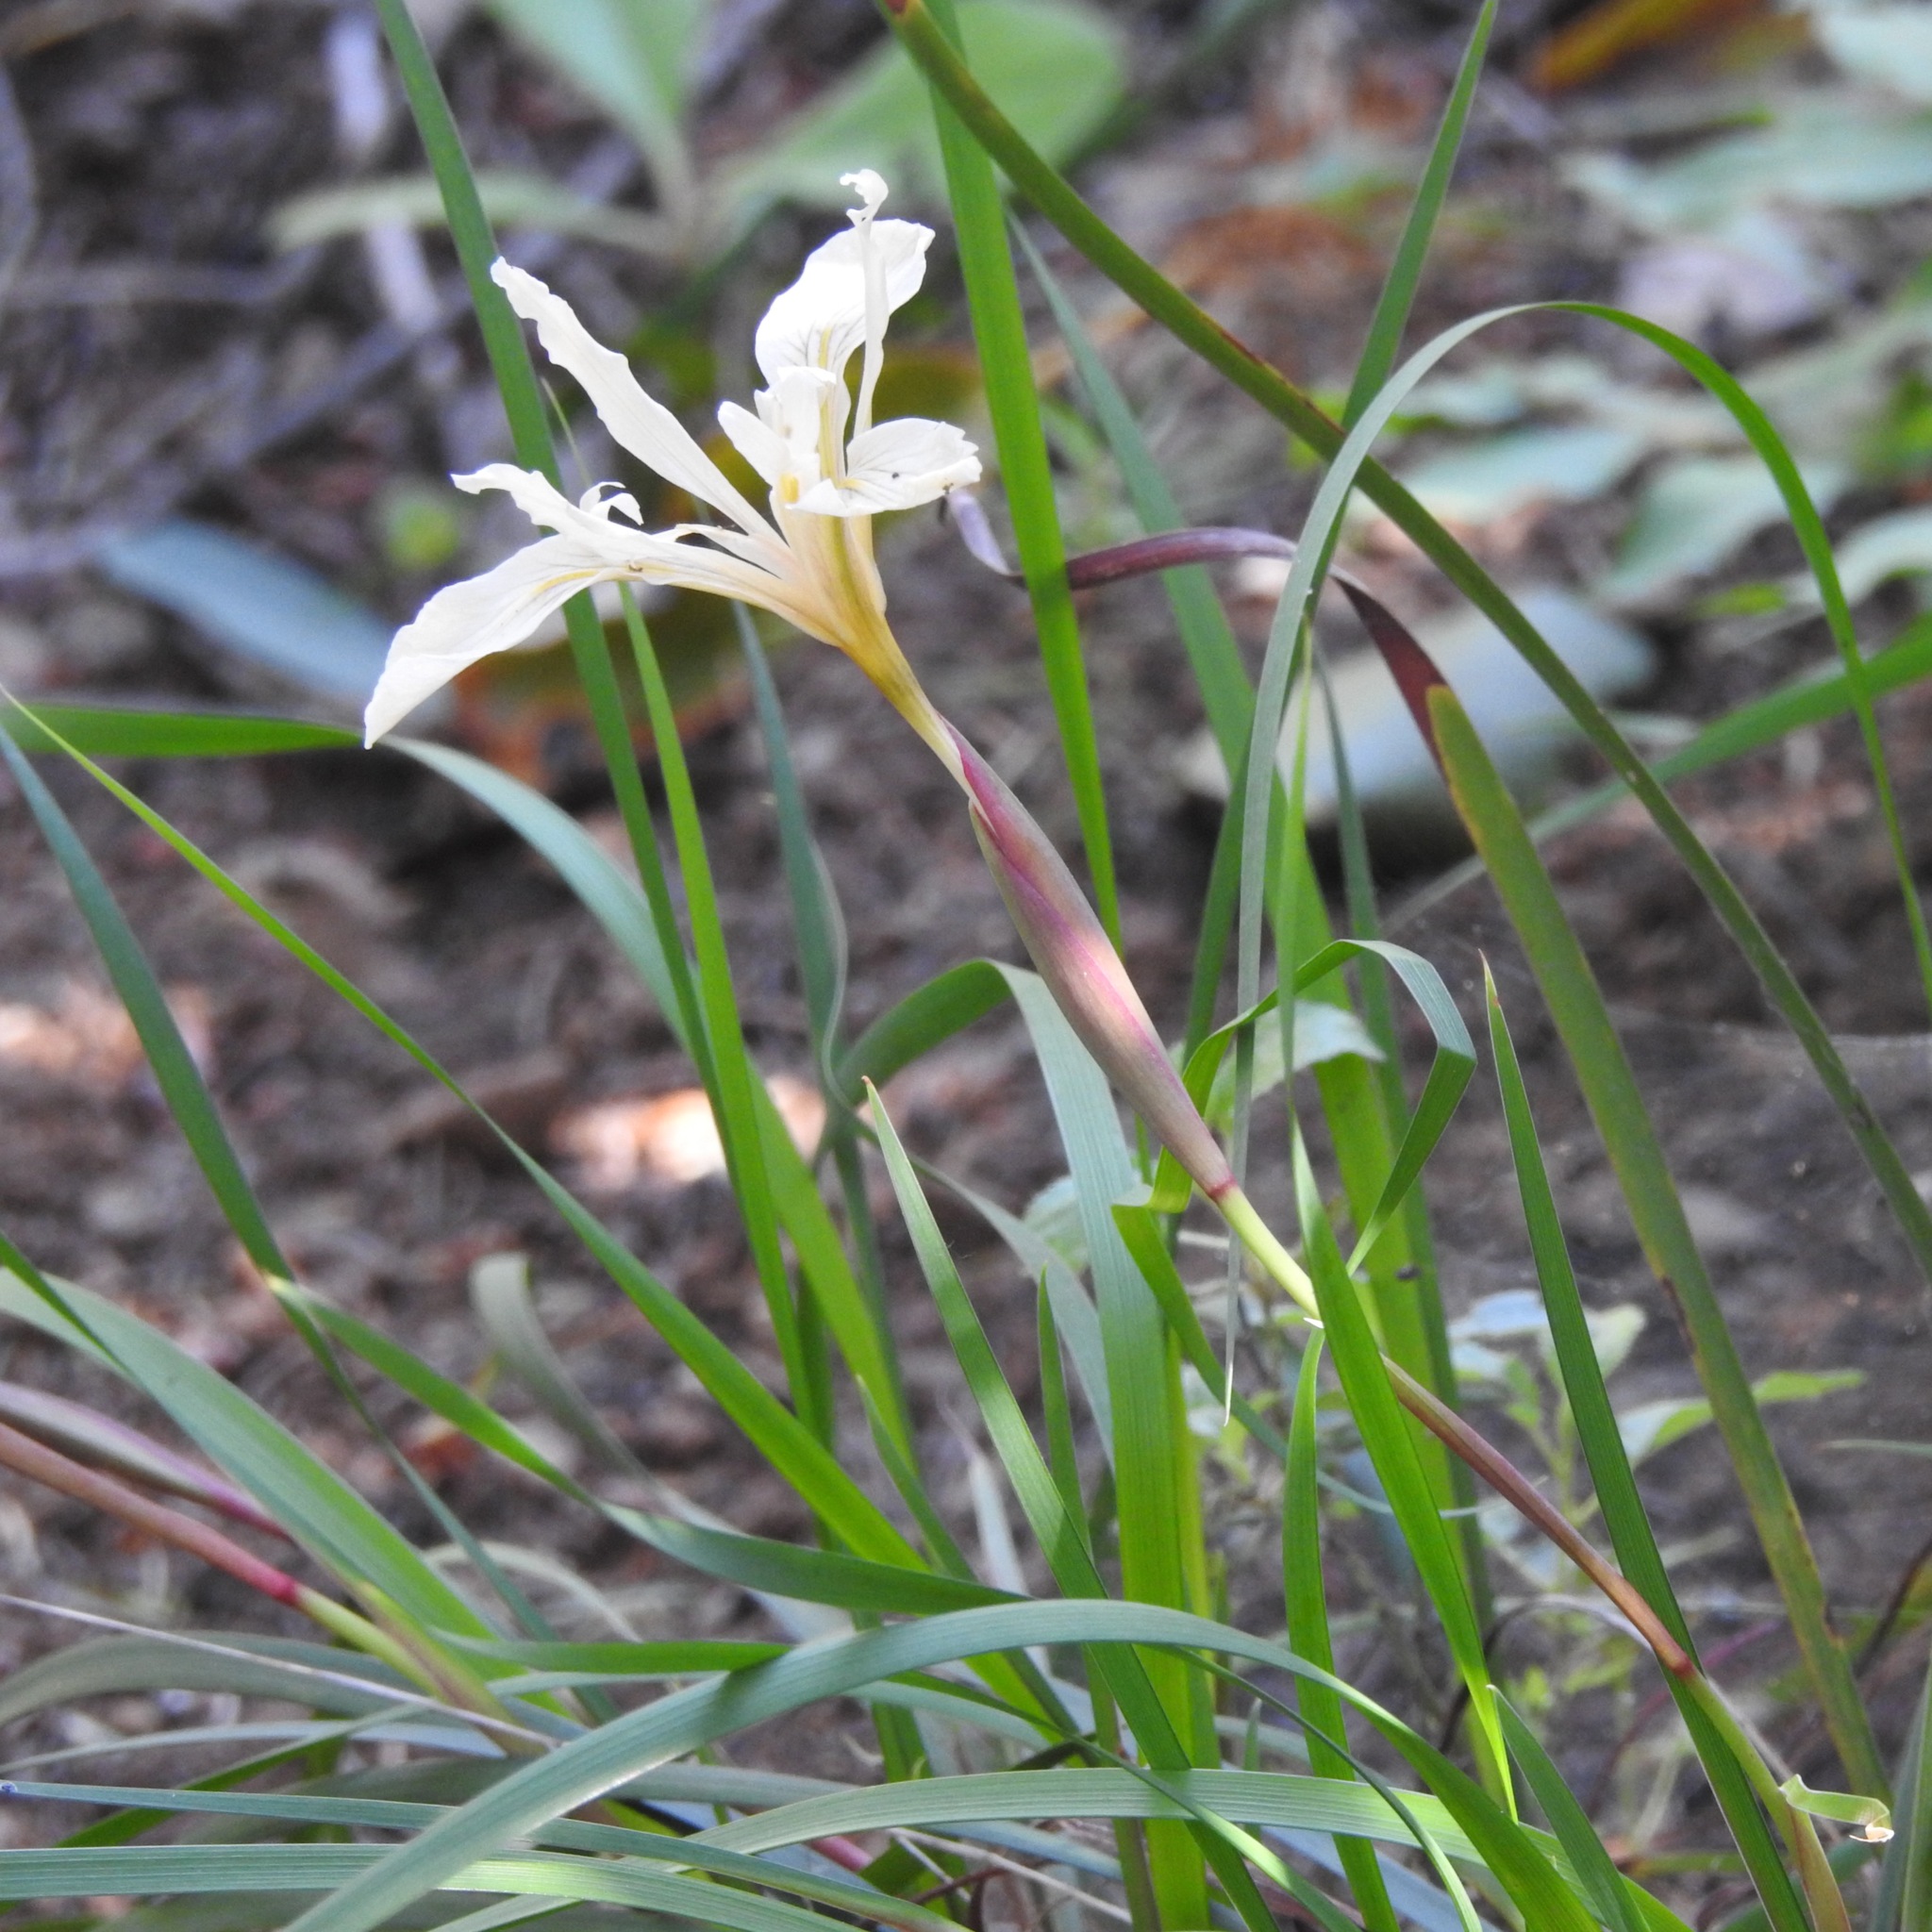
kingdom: Plantae
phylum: Tracheophyta
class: Liliopsida
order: Asparagales
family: Iridaceae
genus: Iris
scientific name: Iris fernaldii
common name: Fernald's iris
